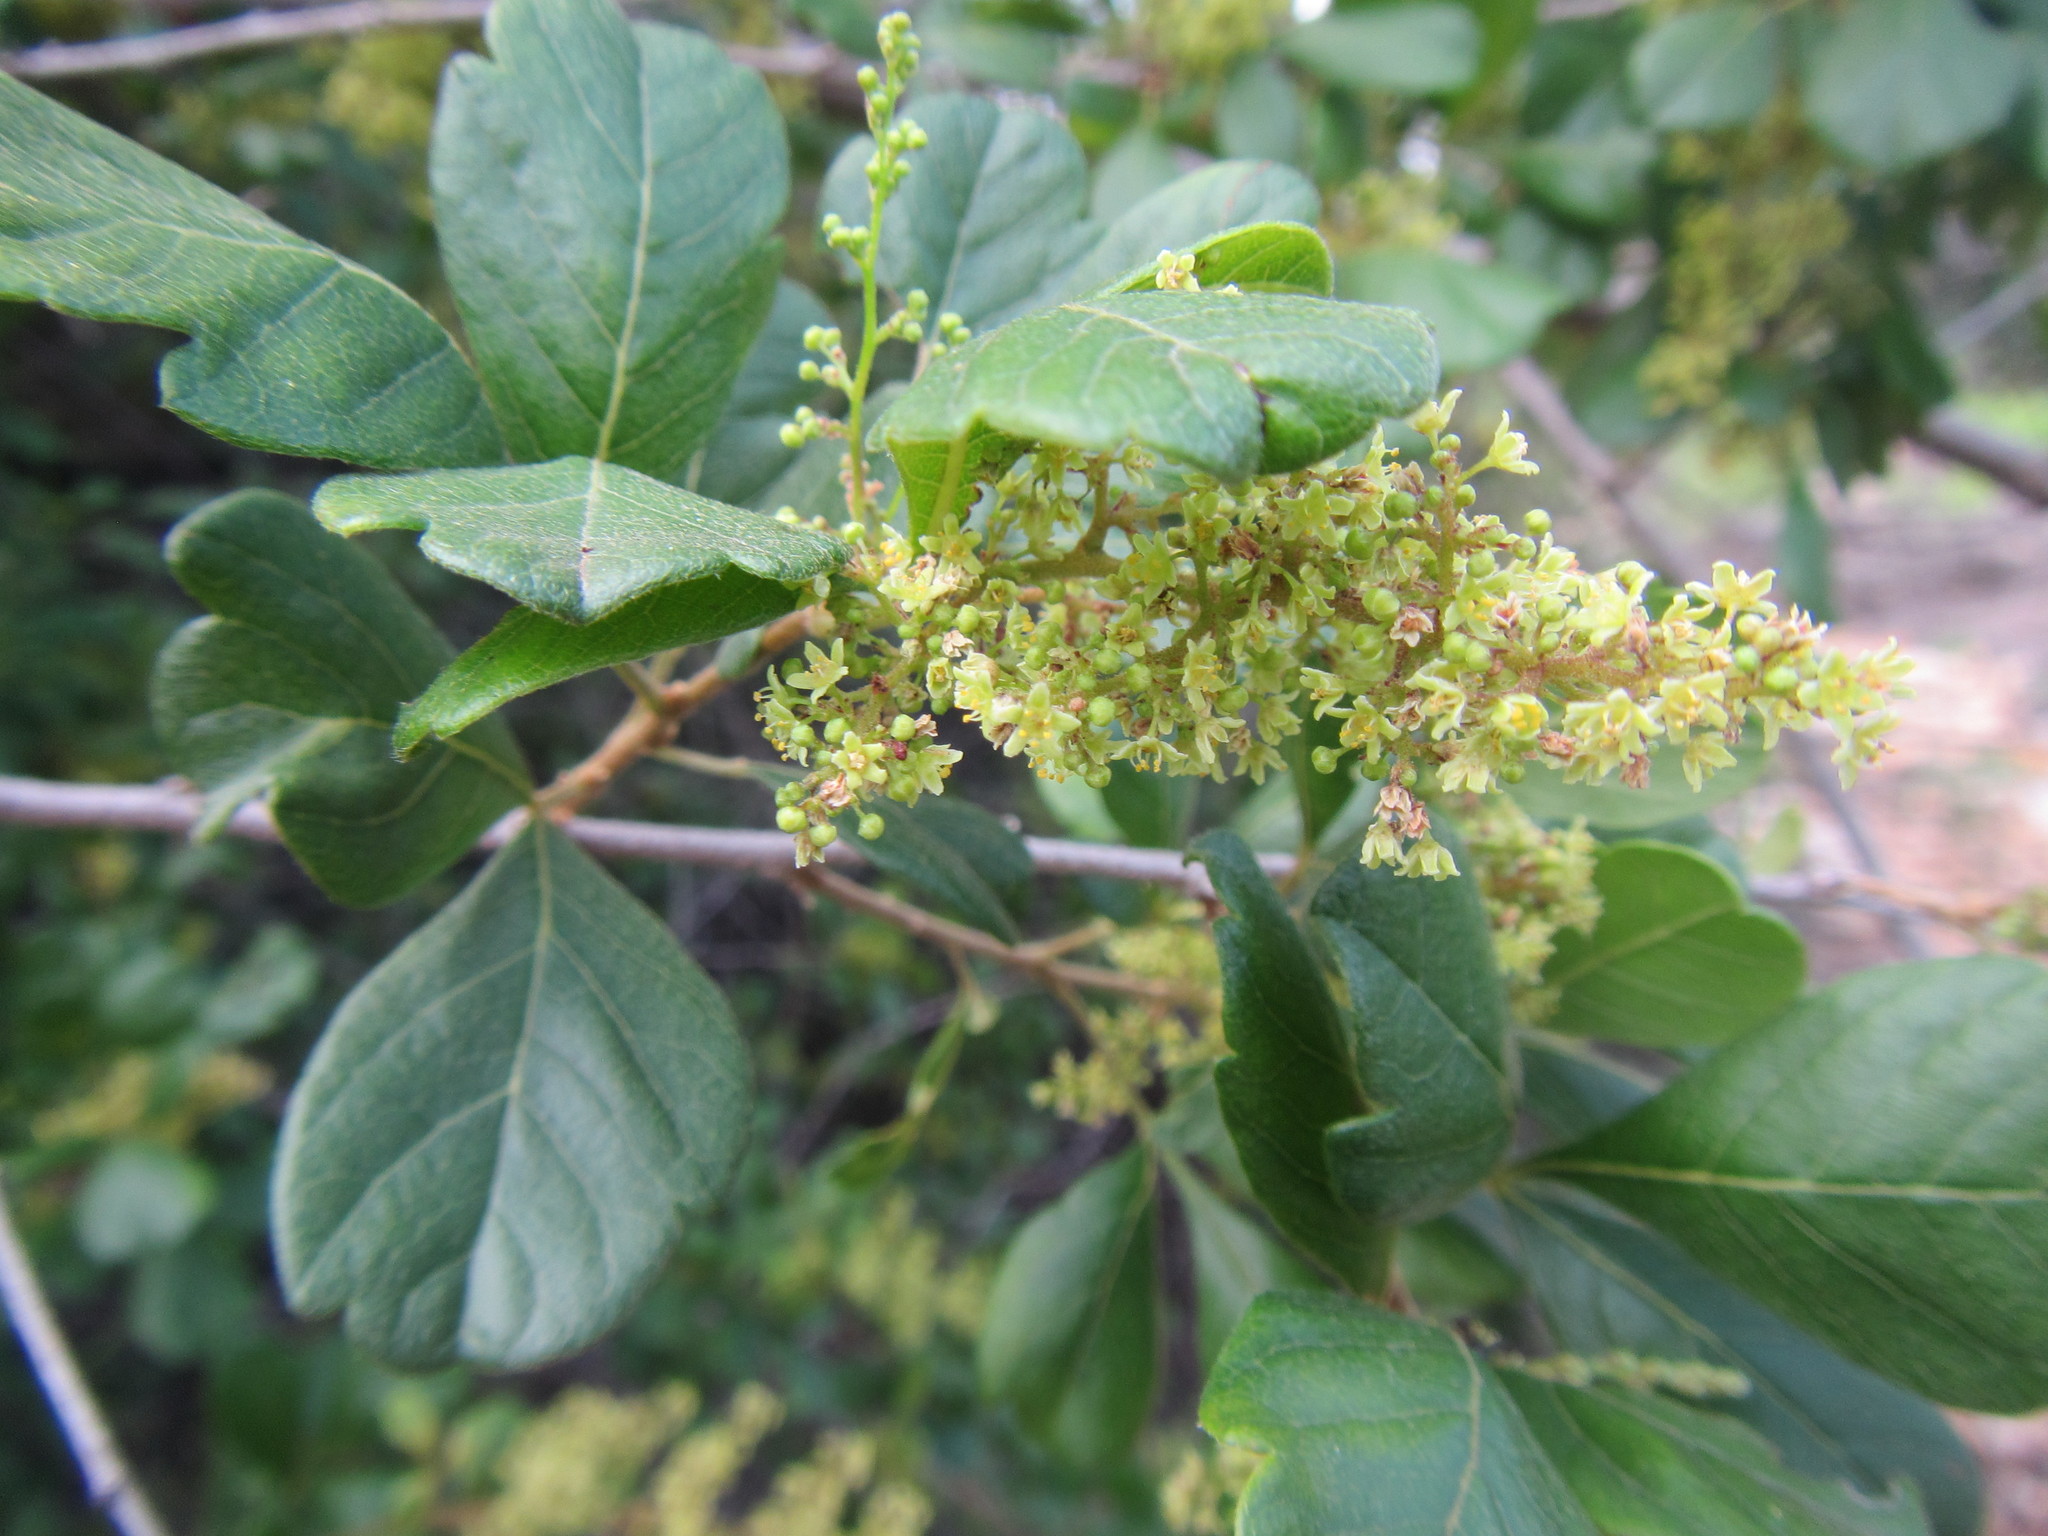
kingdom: Plantae
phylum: Tracheophyta
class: Magnoliopsida
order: Sapindales
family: Anacardiaceae
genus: Searsia
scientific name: Searsia rehmanniana
